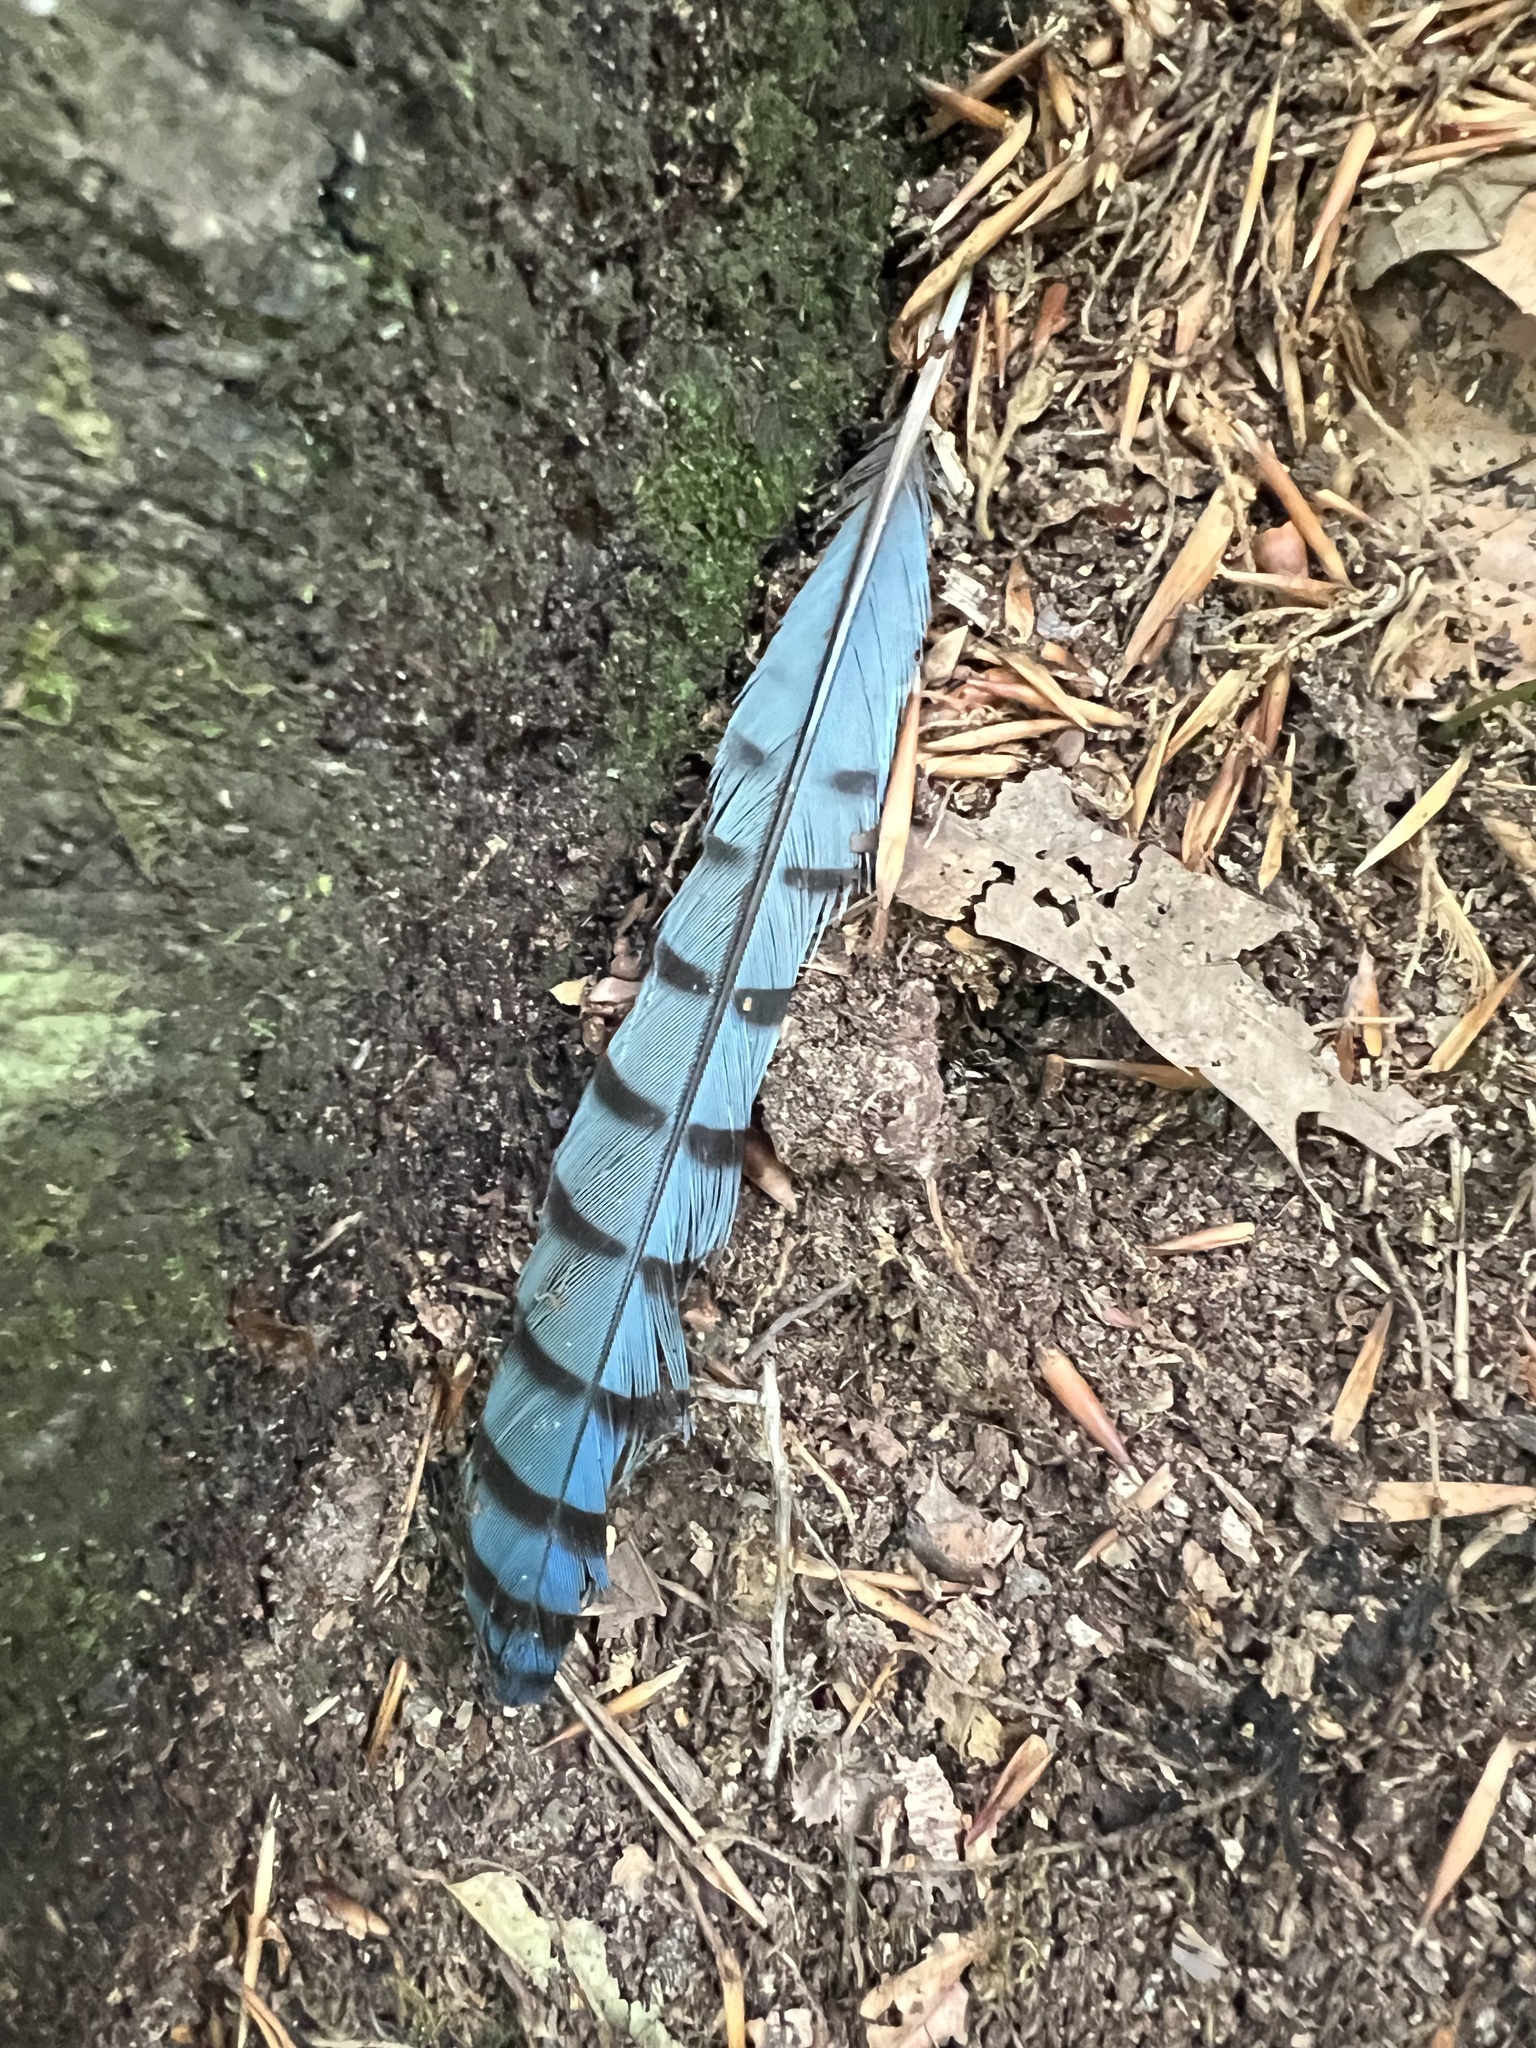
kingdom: Animalia
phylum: Chordata
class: Aves
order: Passeriformes
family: Corvidae
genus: Cyanocitta
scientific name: Cyanocitta cristata
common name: Blue jay
